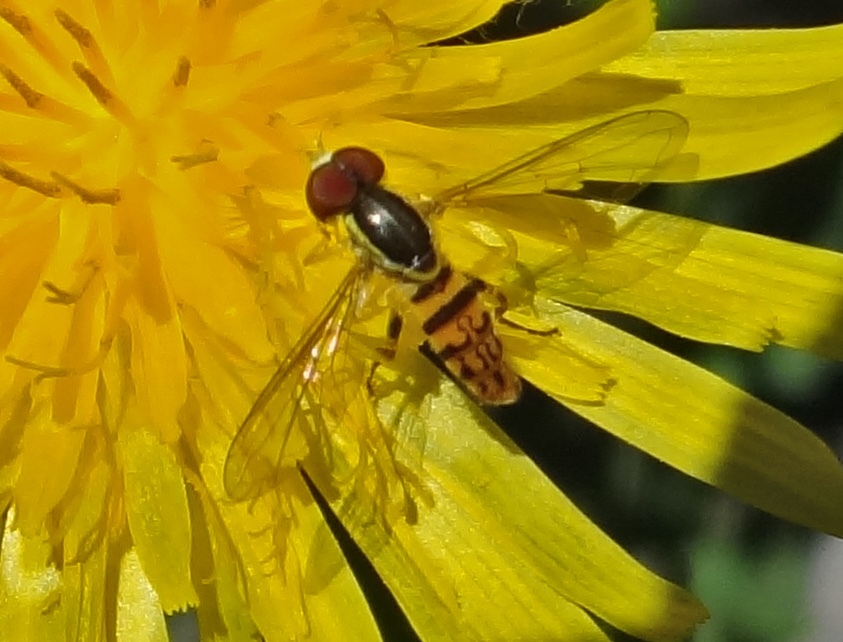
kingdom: Animalia
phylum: Arthropoda
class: Insecta
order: Diptera
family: Syrphidae
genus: Toxomerus
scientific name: Toxomerus geminatus
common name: Eastern calligrapher
